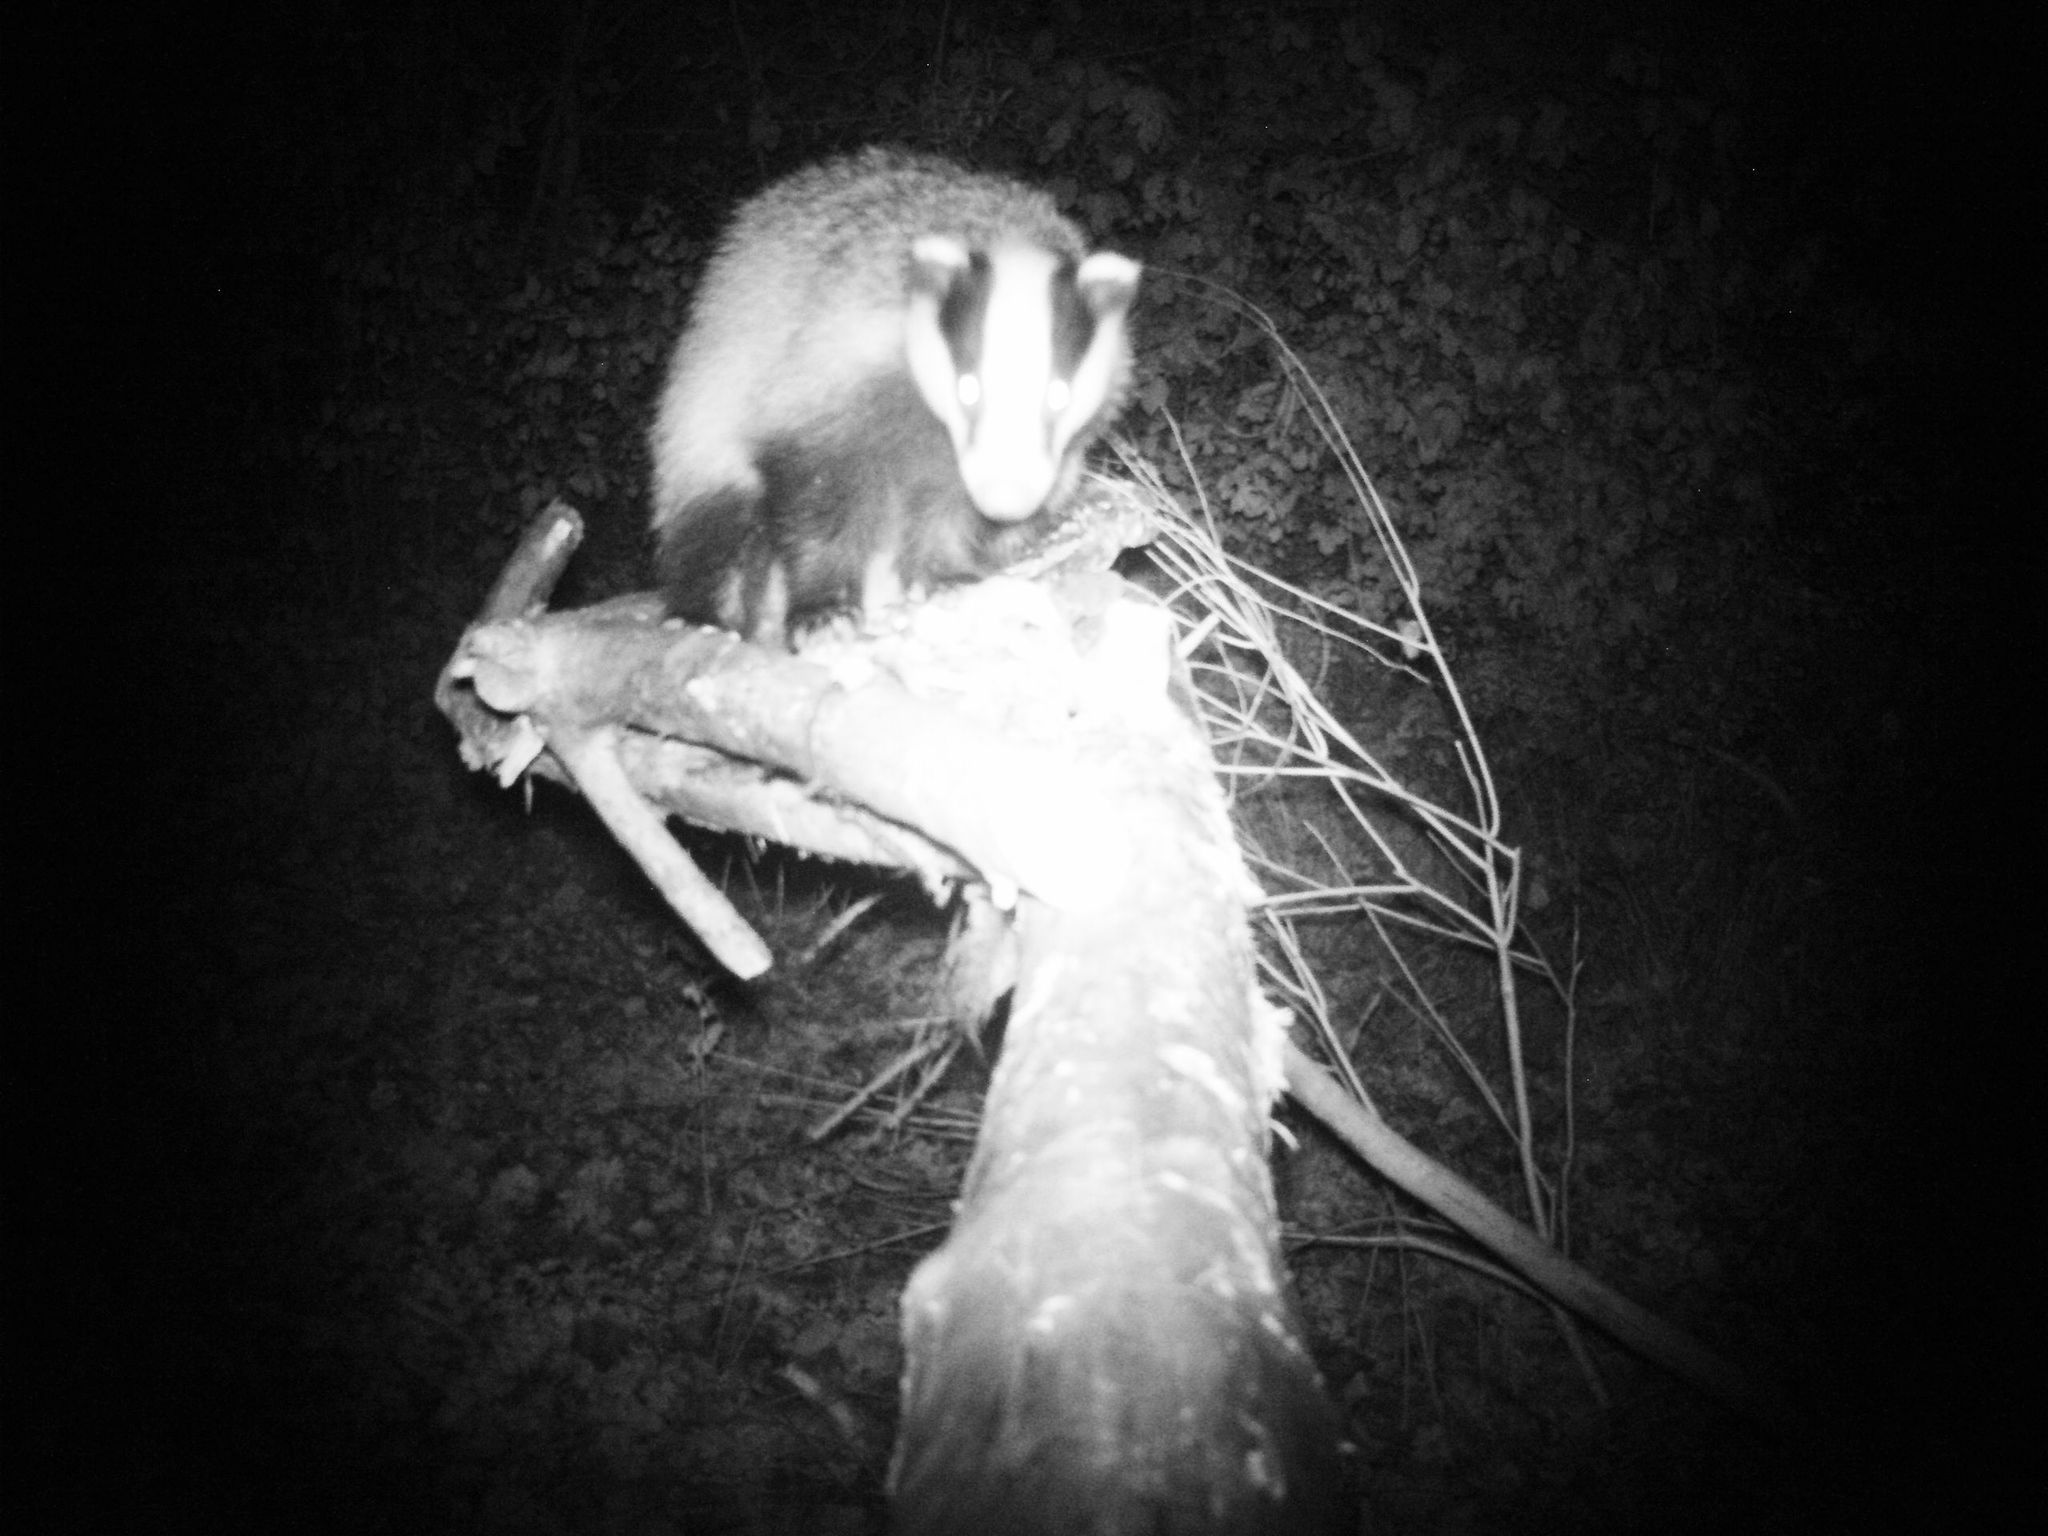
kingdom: Animalia
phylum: Chordata
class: Mammalia
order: Carnivora
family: Mustelidae
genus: Meles
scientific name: Meles meles
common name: Eurasian badger
